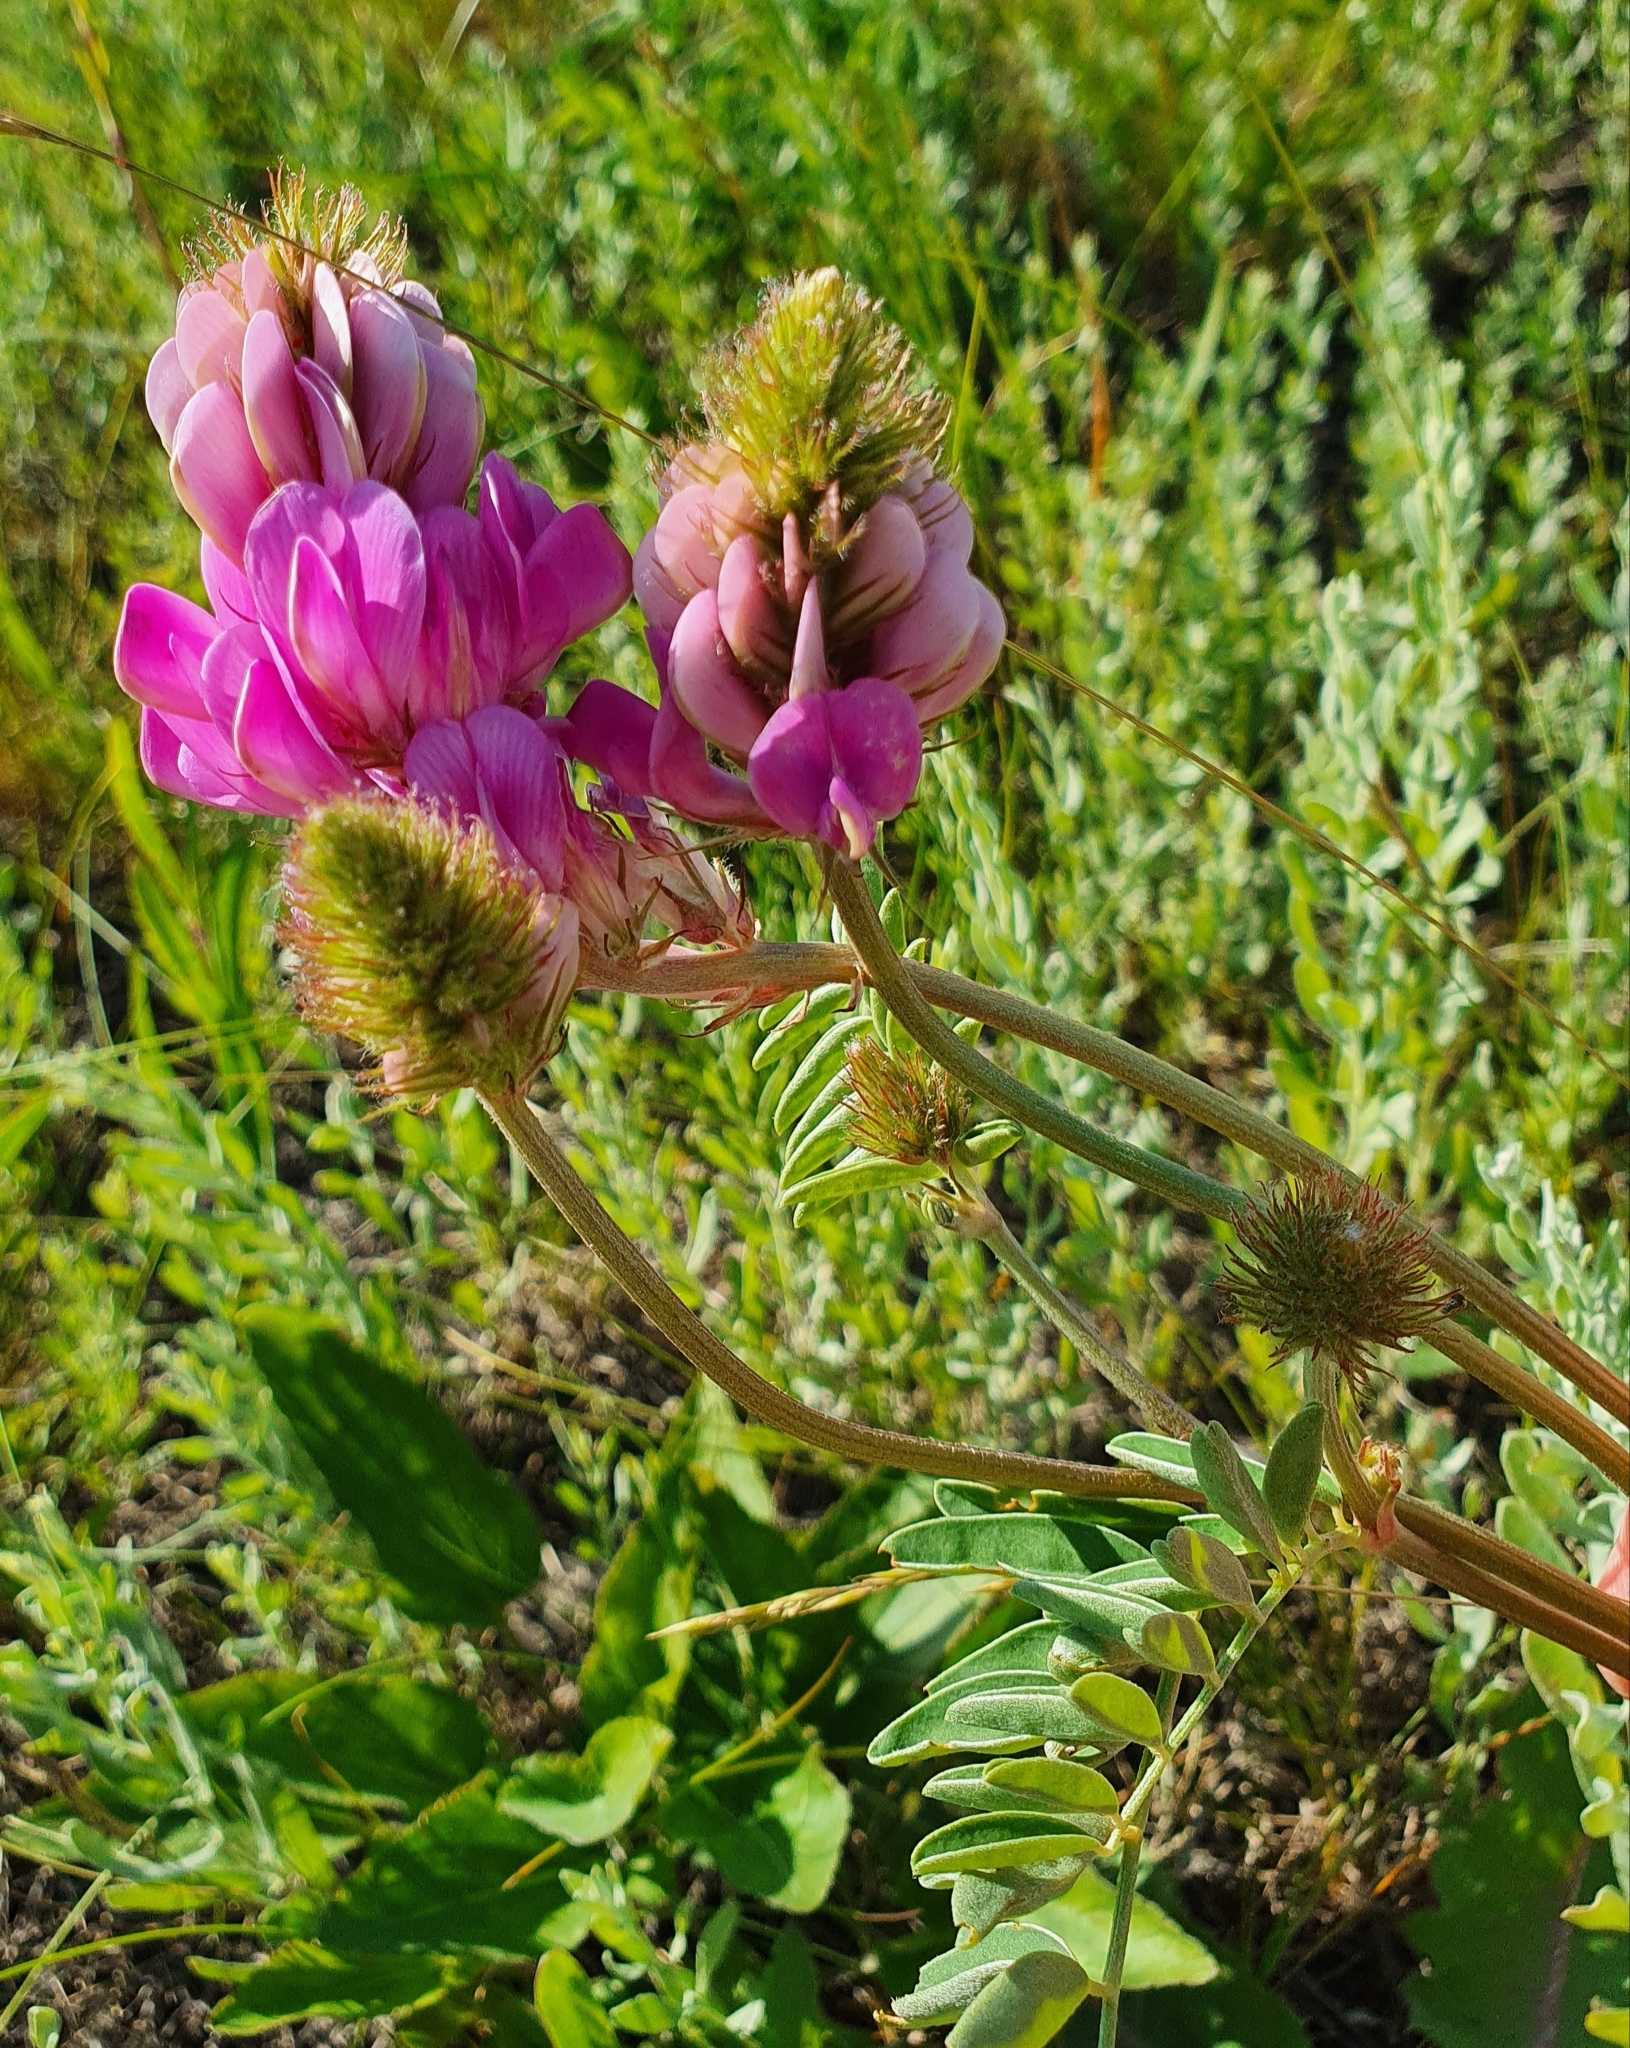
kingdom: Plantae
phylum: Tracheophyta
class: Magnoliopsida
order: Fabales
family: Fabaceae
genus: Hedysarum
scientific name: Hedysarum gmelinii
